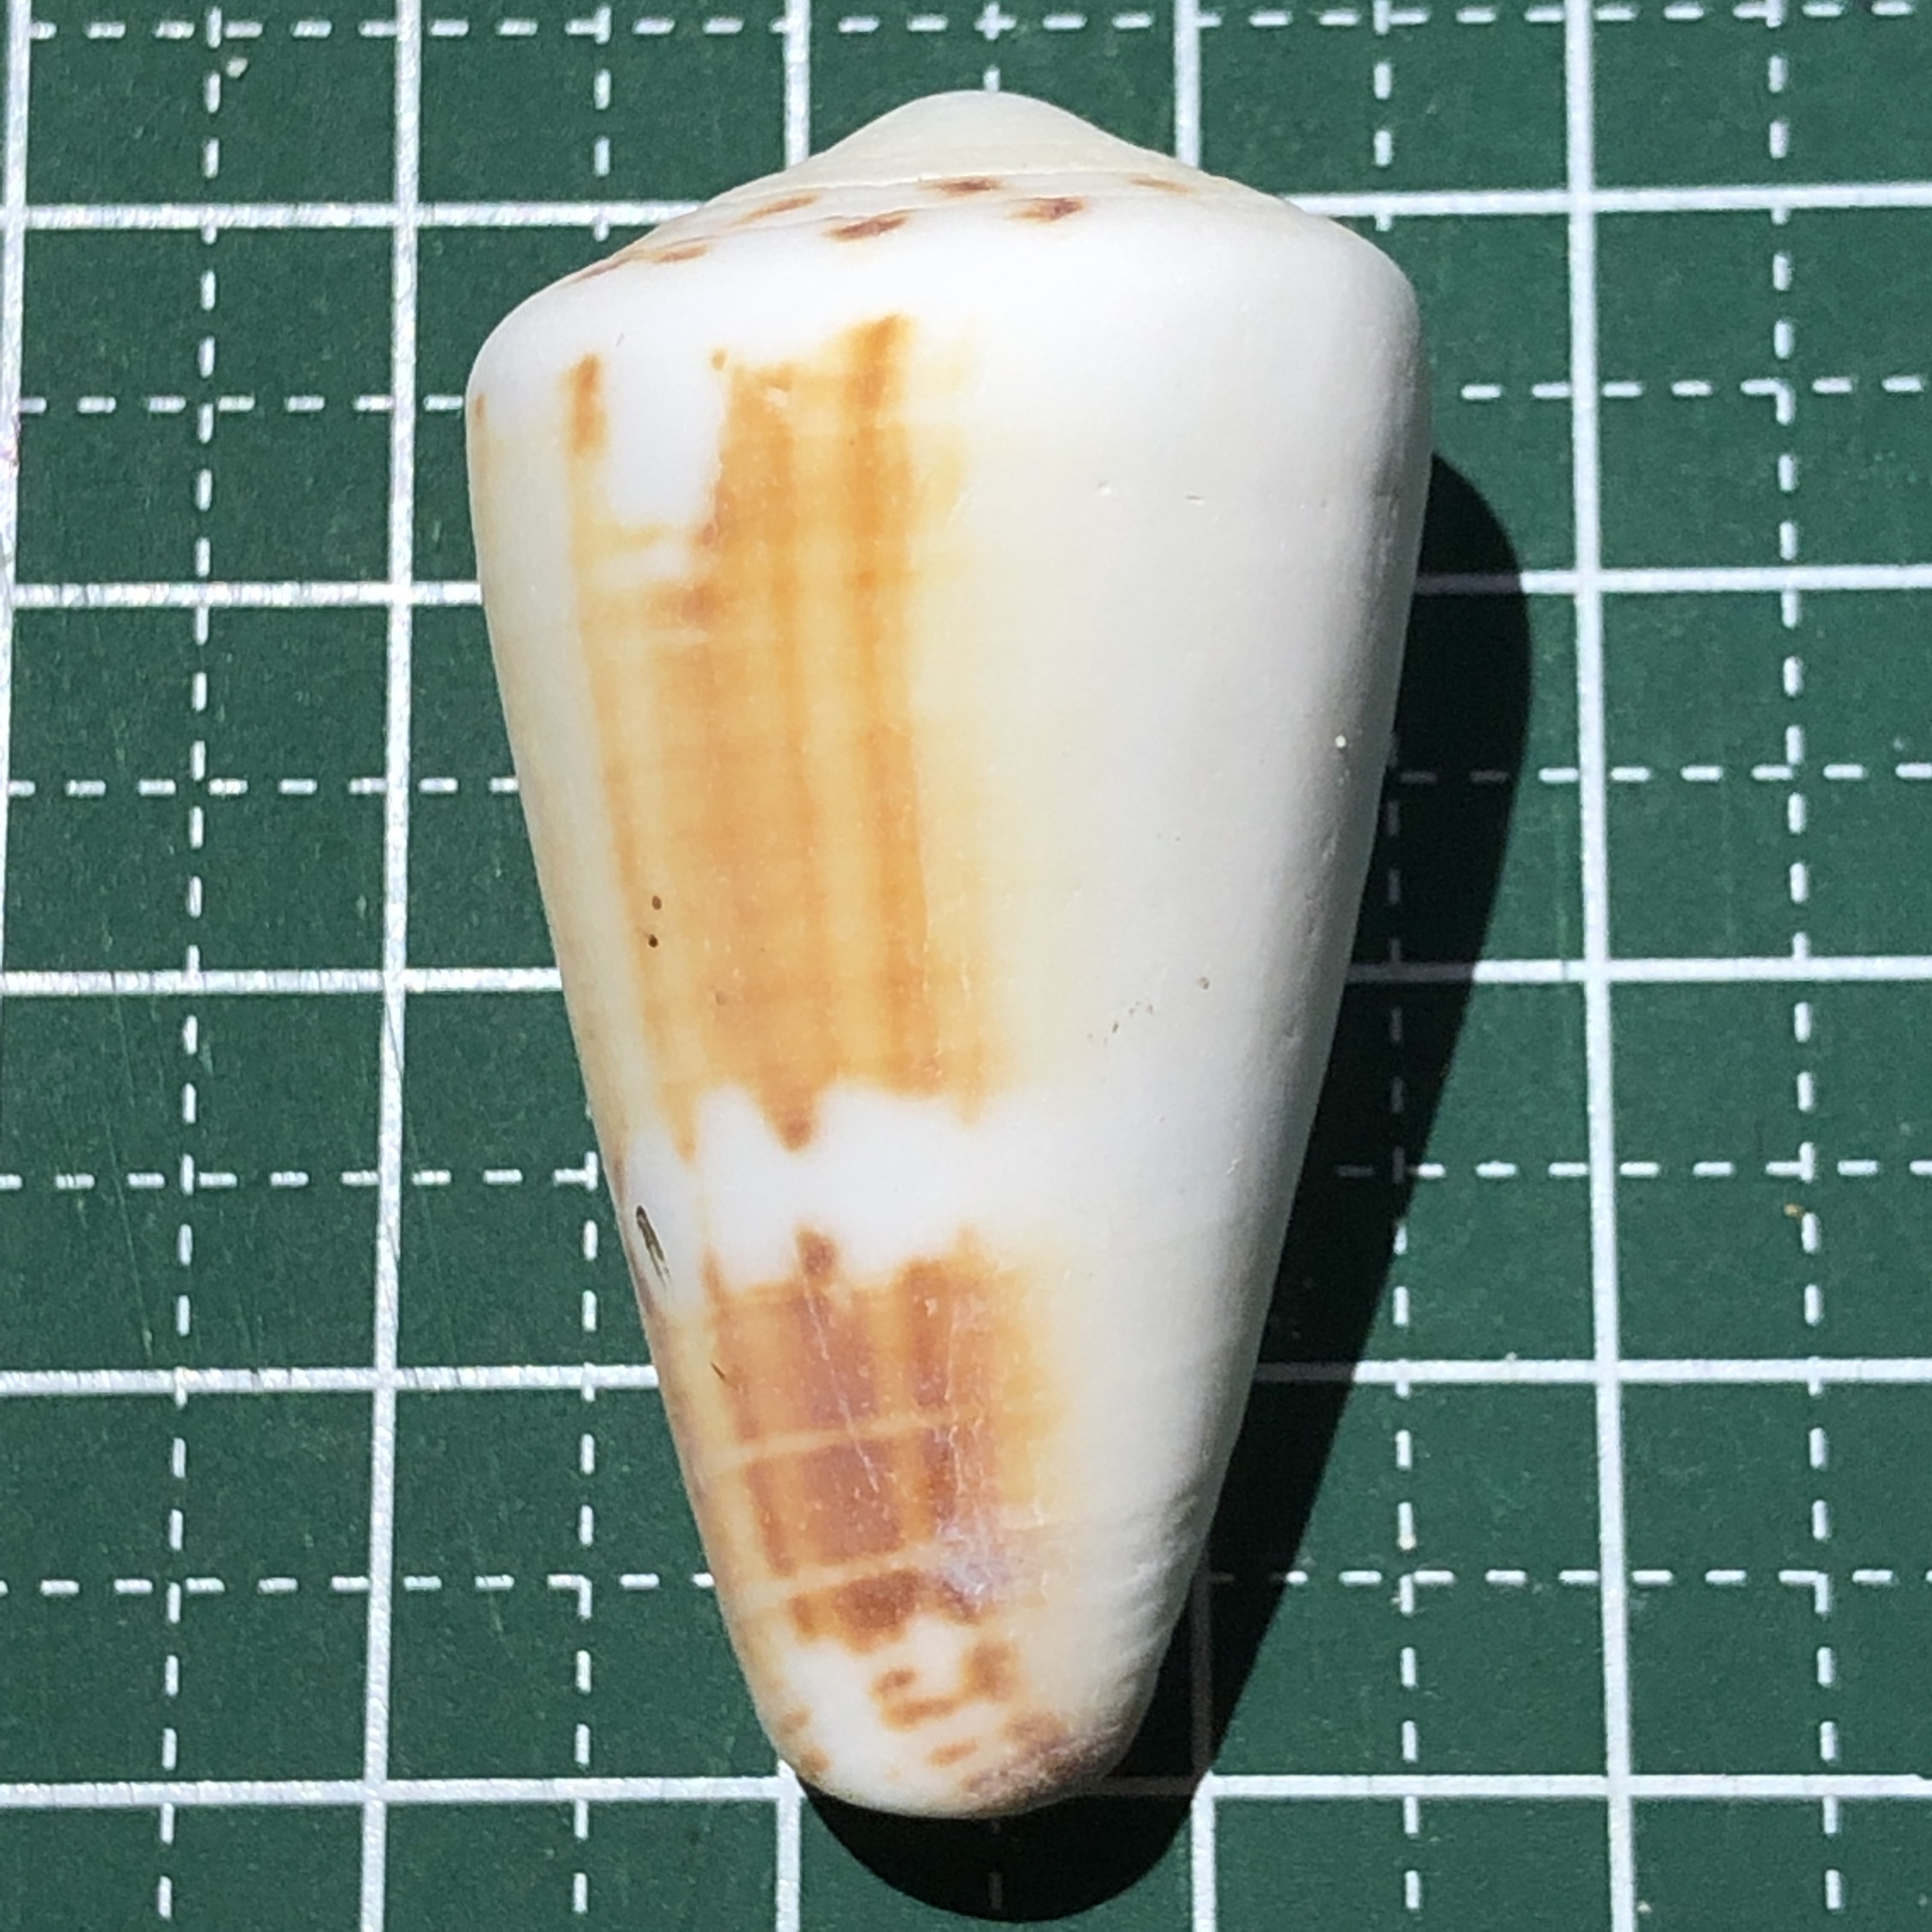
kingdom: Animalia
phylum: Mollusca
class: Gastropoda
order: Neogastropoda
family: Conidae
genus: Conus
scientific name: Conus planorbis
